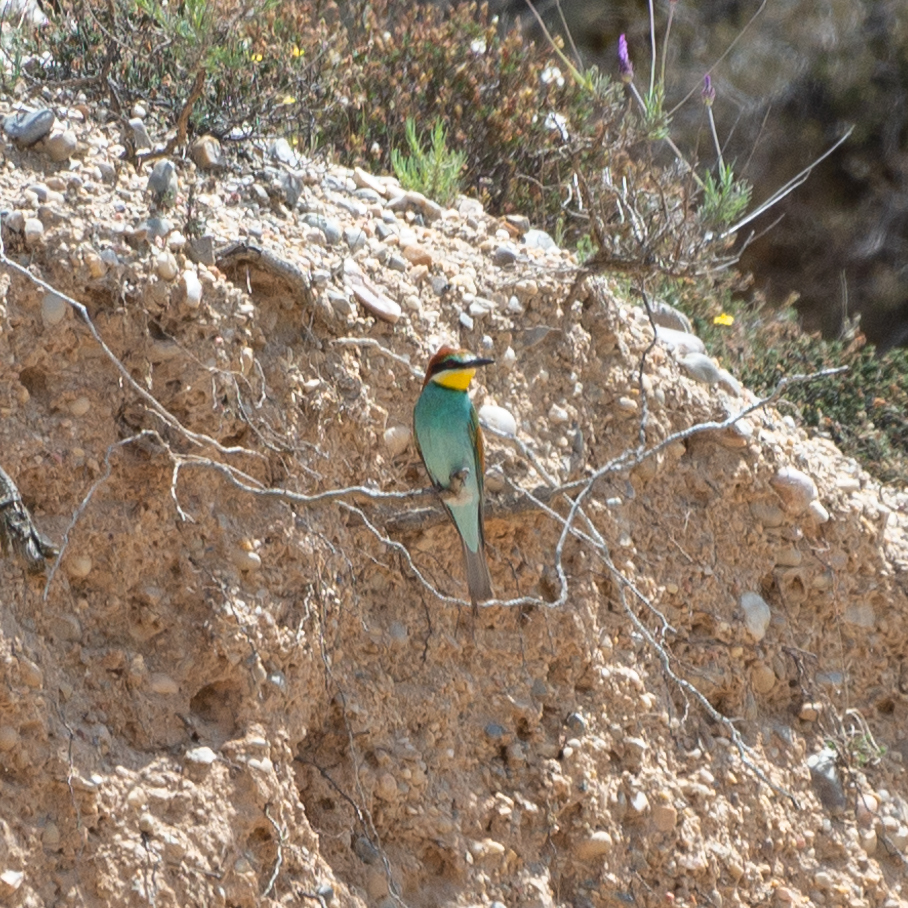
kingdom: Animalia
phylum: Chordata
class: Aves
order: Coraciiformes
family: Meropidae
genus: Merops
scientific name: Merops apiaster
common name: European bee-eater
